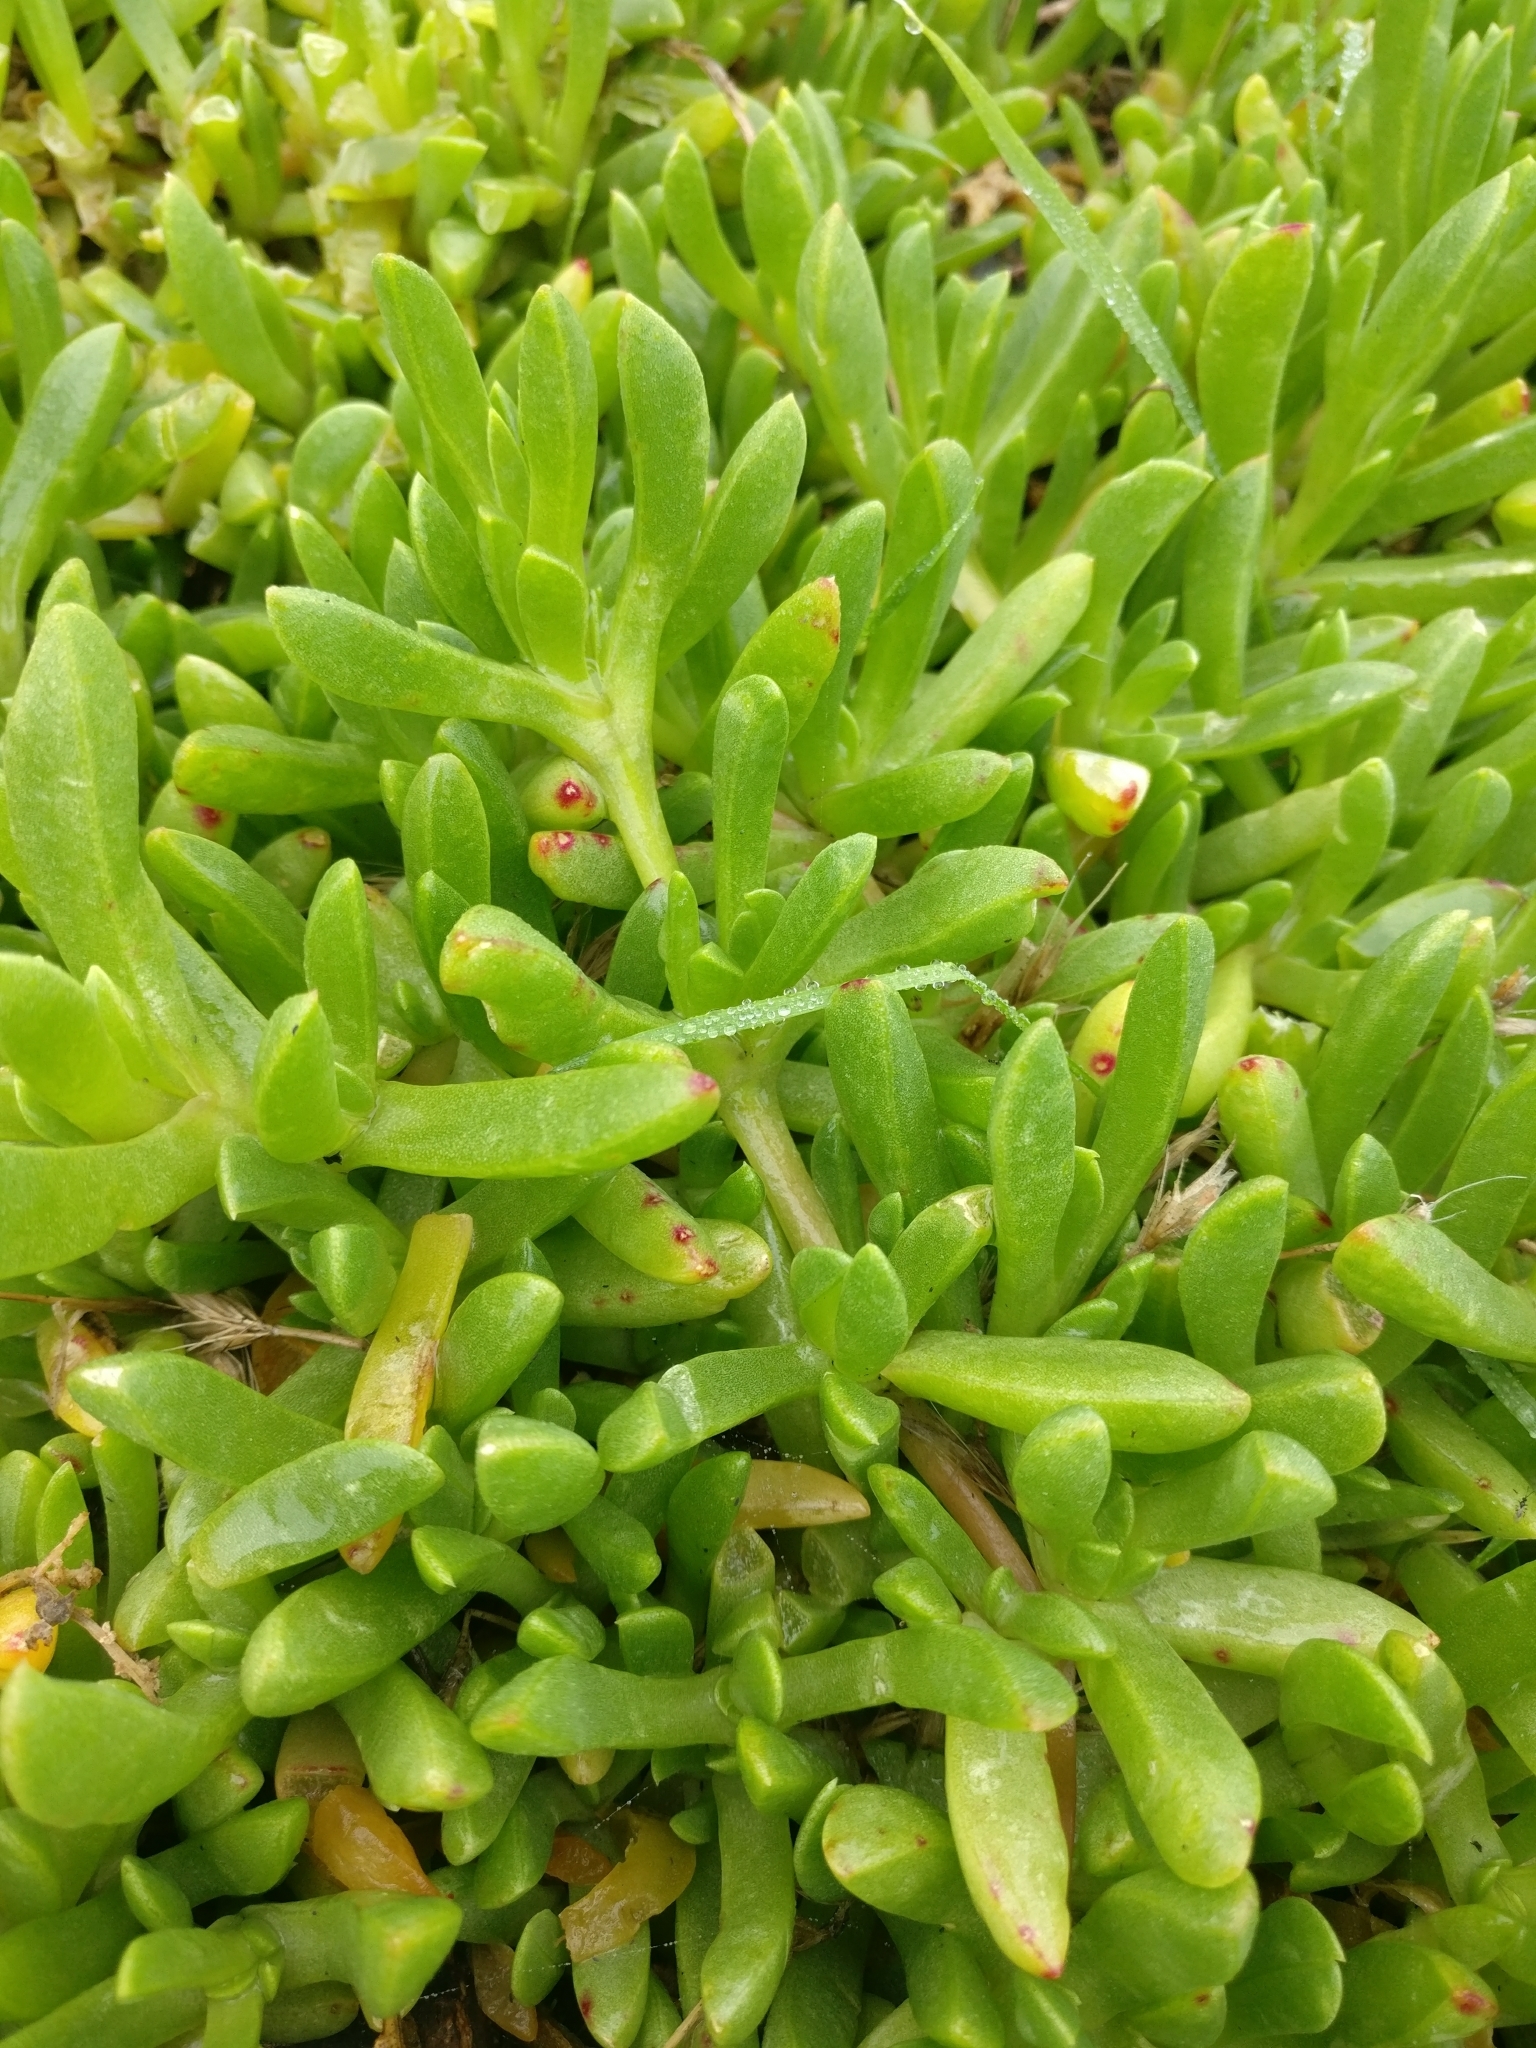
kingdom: Plantae
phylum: Tracheophyta
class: Magnoliopsida
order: Caryophyllales
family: Aizoaceae
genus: Disphyma
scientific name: Disphyma australe
